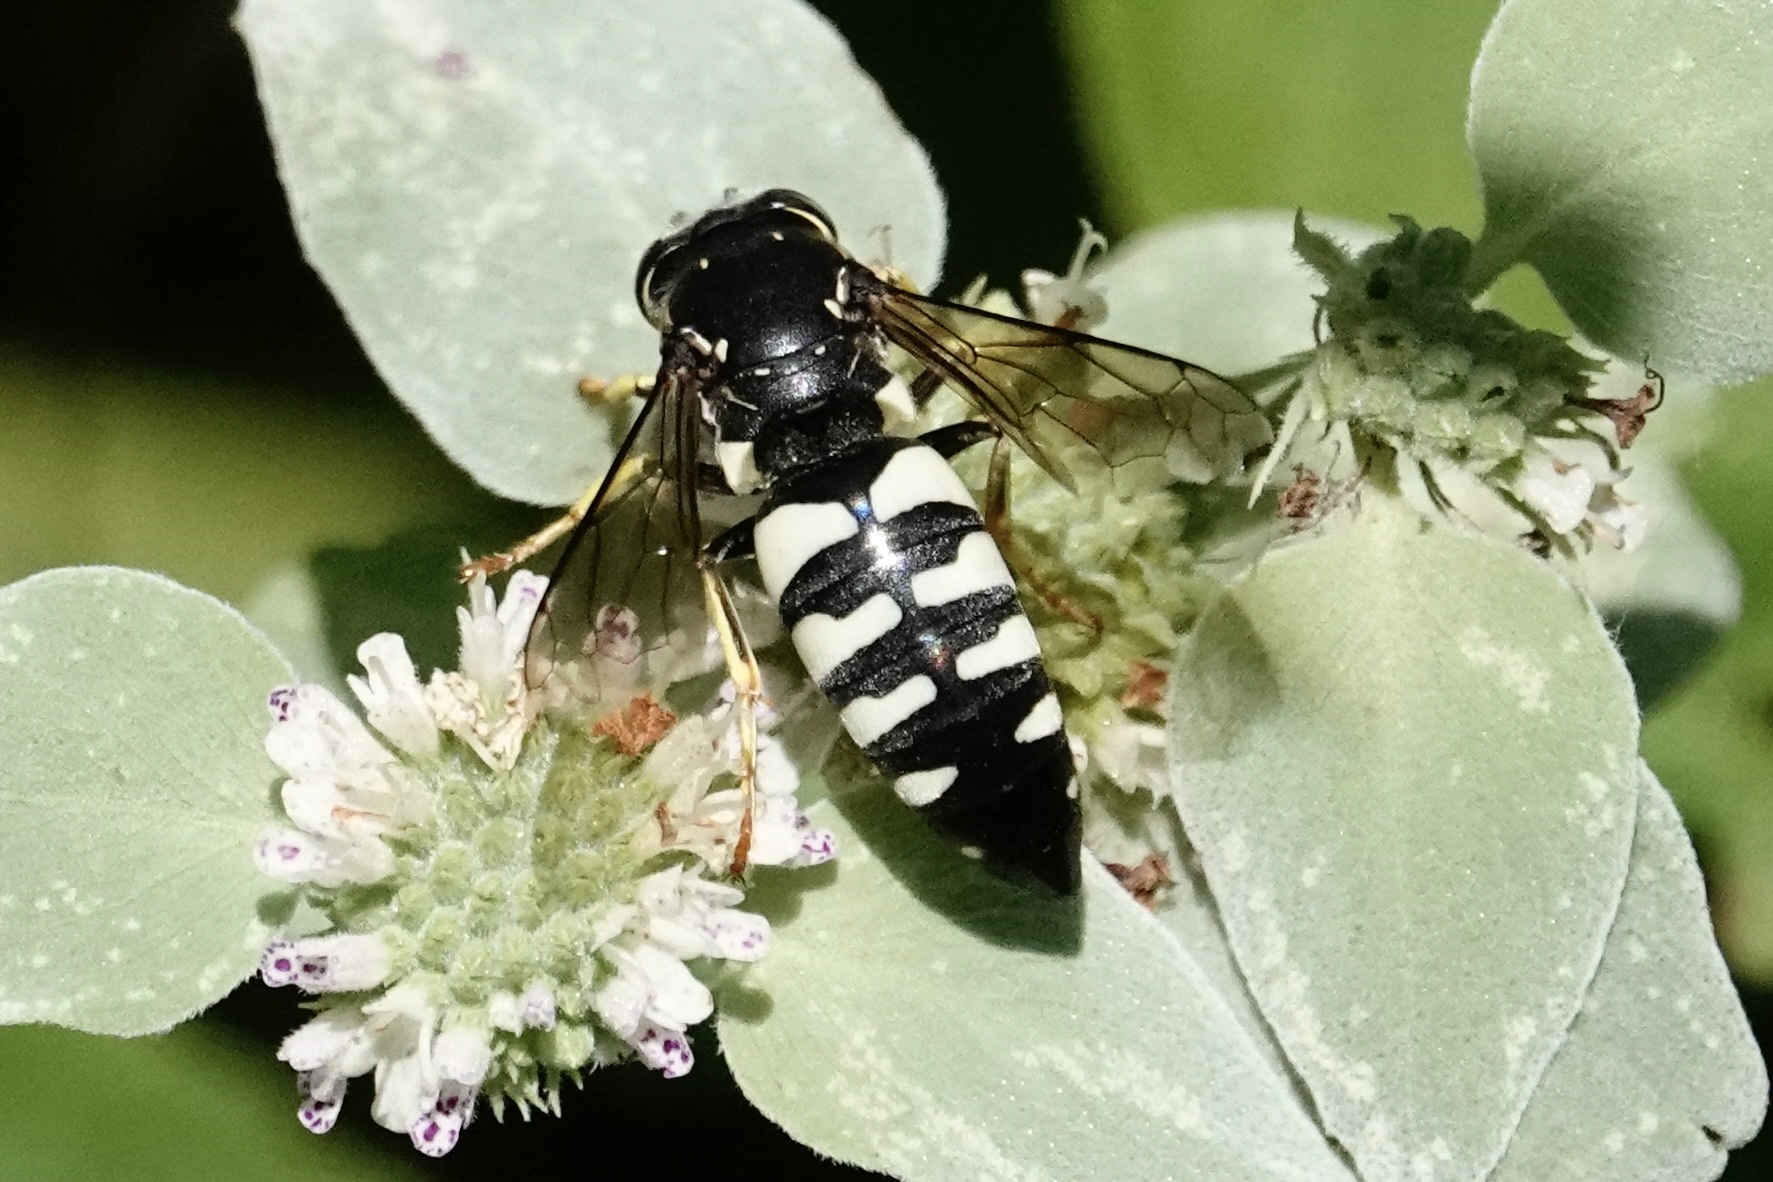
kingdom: Animalia
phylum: Arthropoda
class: Insecta
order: Hymenoptera
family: Crabronidae
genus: Bicyrtes
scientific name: Bicyrtes quadrifasciatus
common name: Four-banded stink bug hunter wasp
